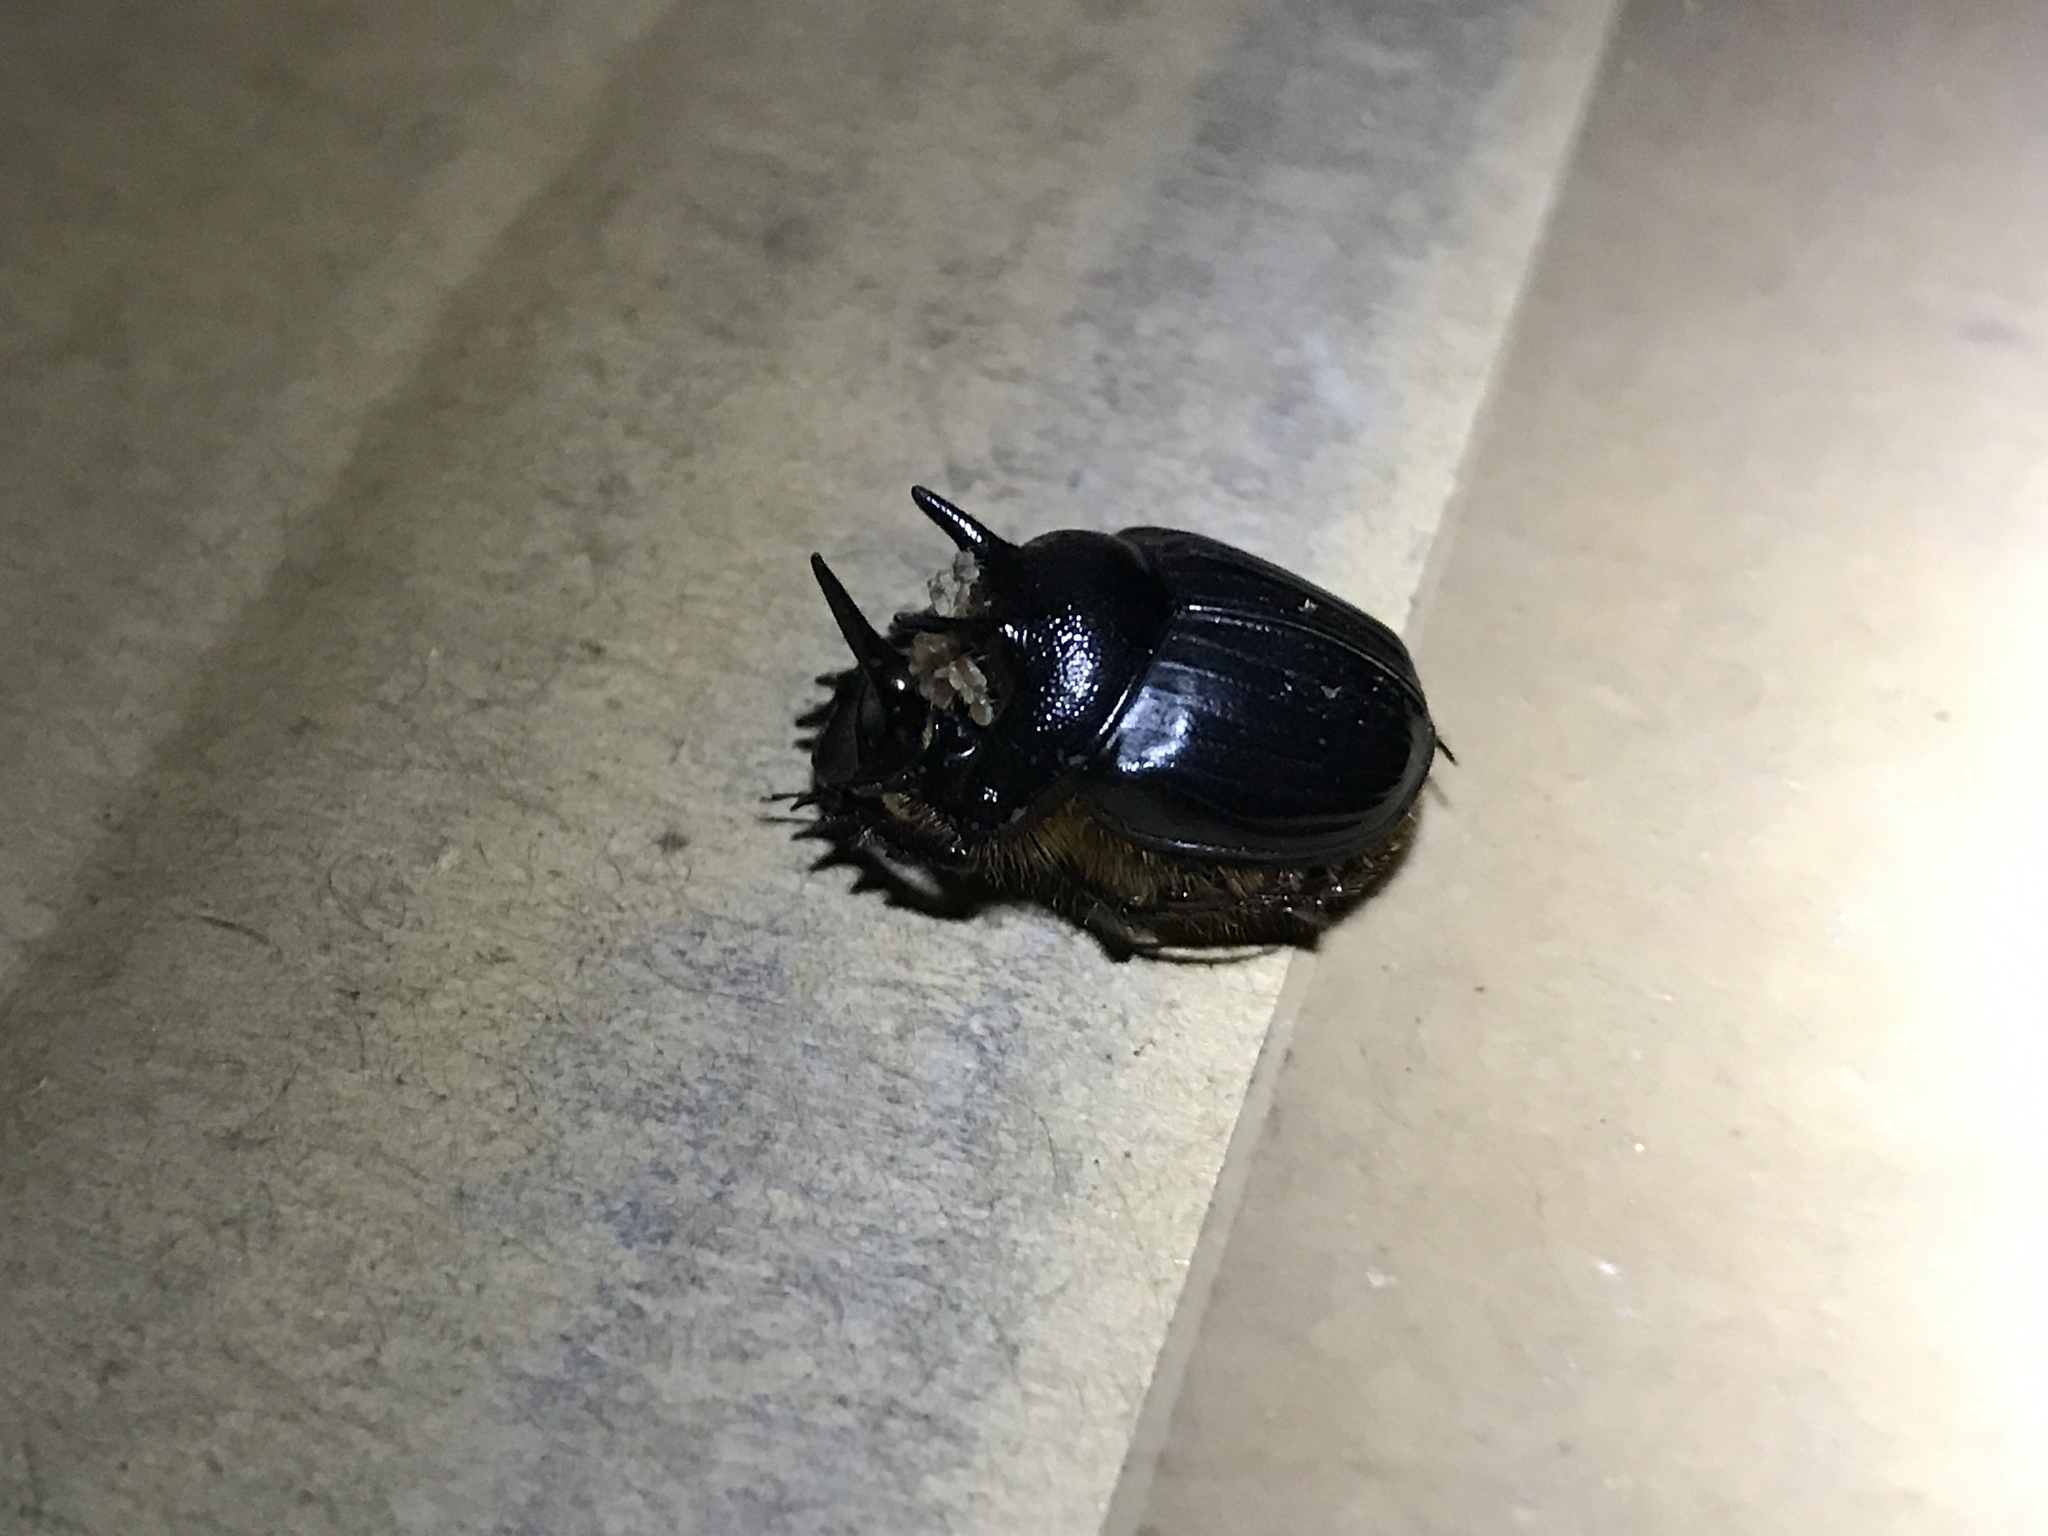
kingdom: Animalia
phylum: Arthropoda
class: Insecta
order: Coleoptera
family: Scarabaeidae
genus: Onthophagus
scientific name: Onthophagus ferox
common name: Western dung beetle
